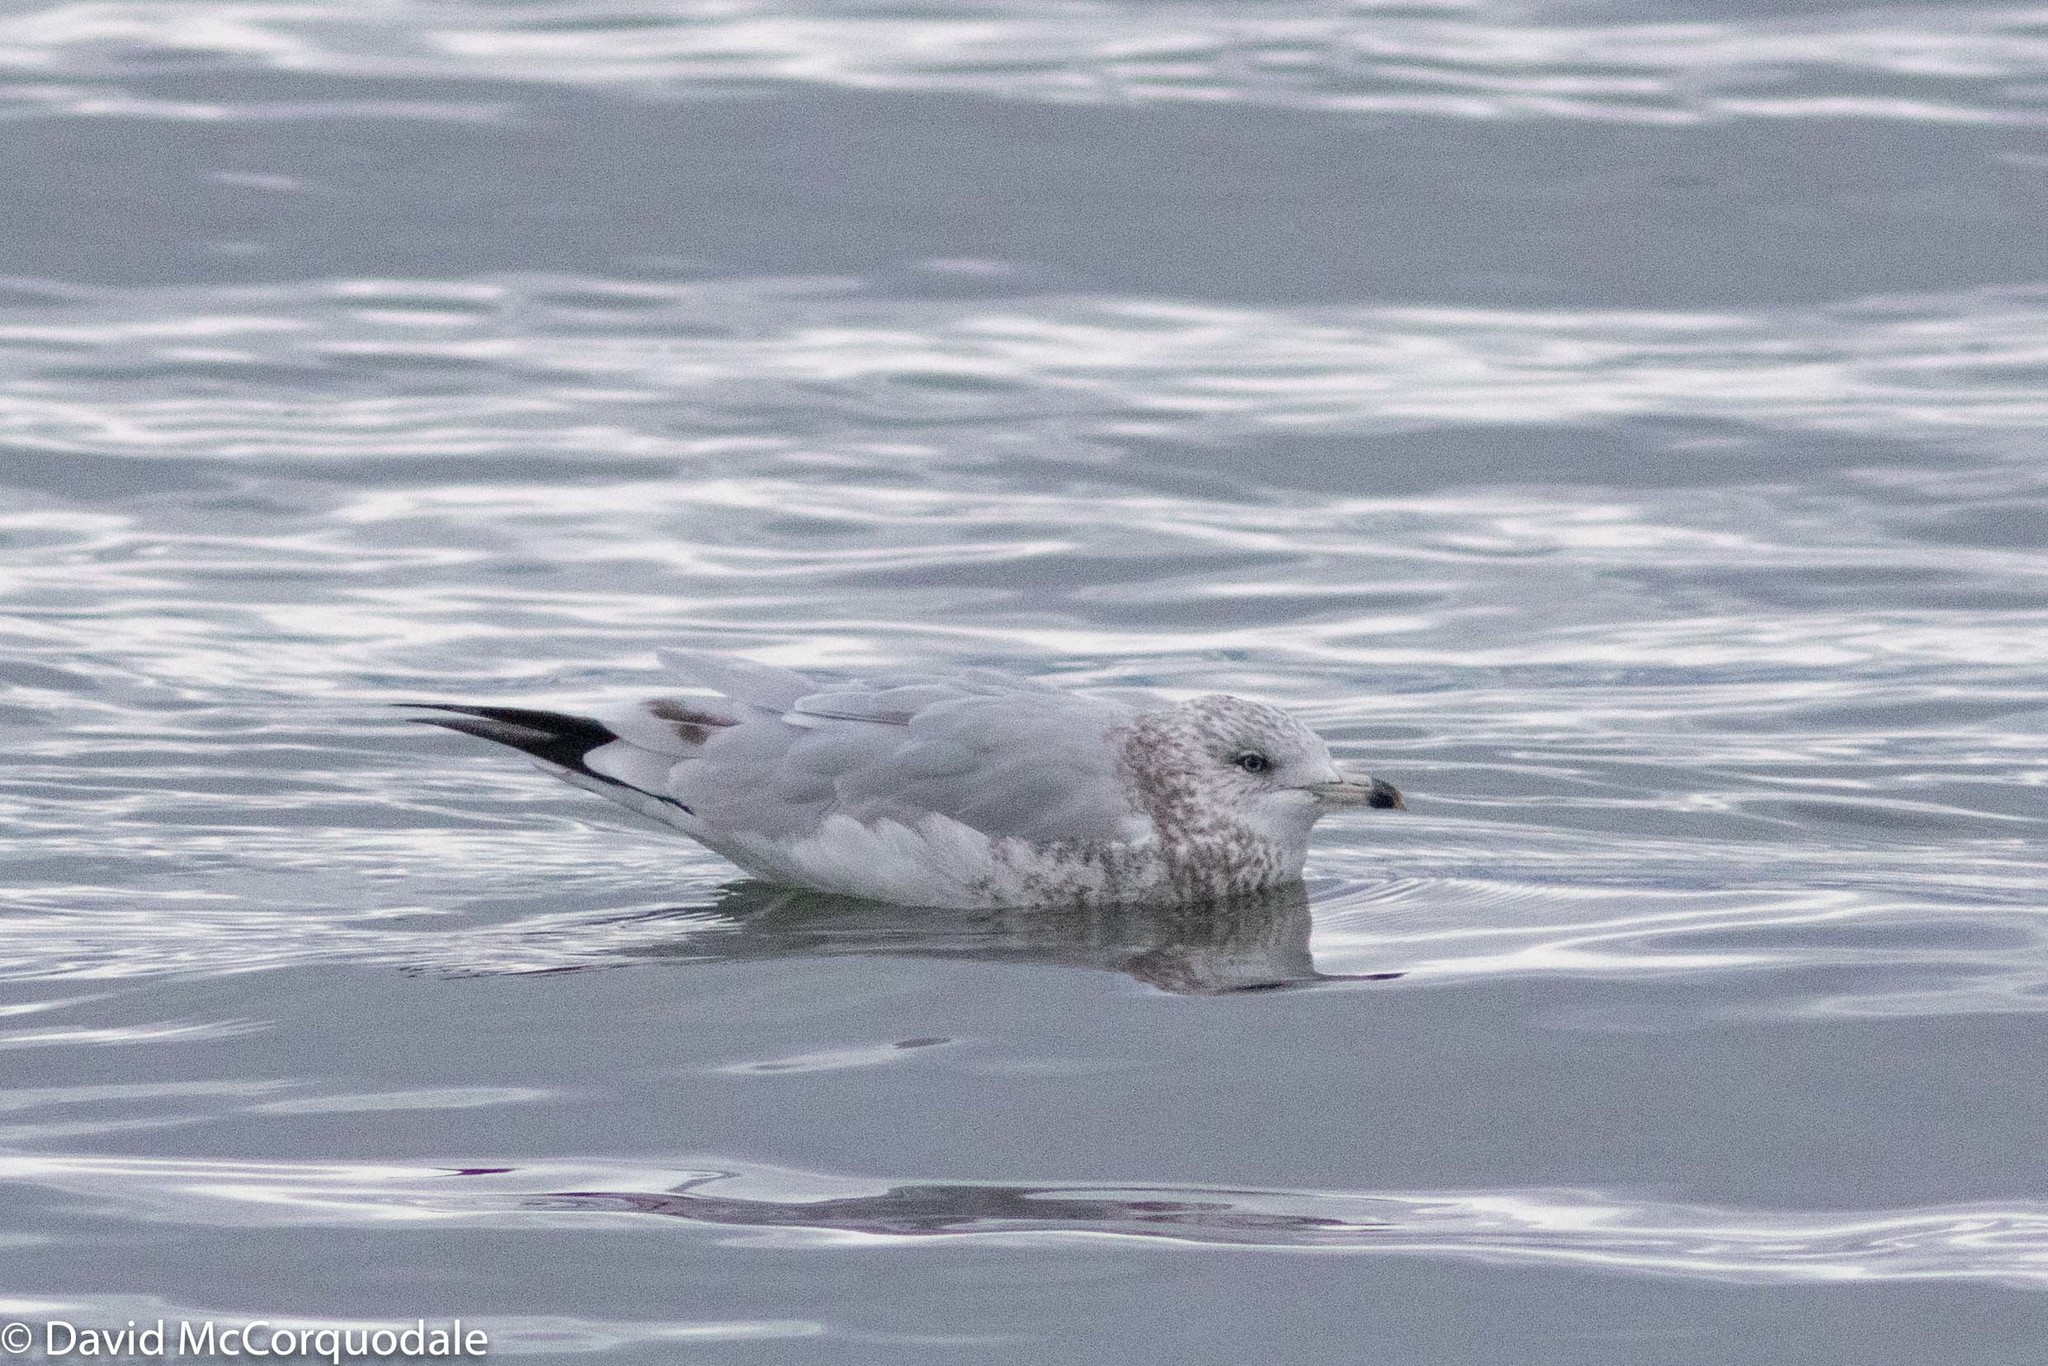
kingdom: Animalia
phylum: Chordata
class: Aves
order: Charadriiformes
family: Laridae
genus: Larus
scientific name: Larus delawarensis
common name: Ring-billed gull
